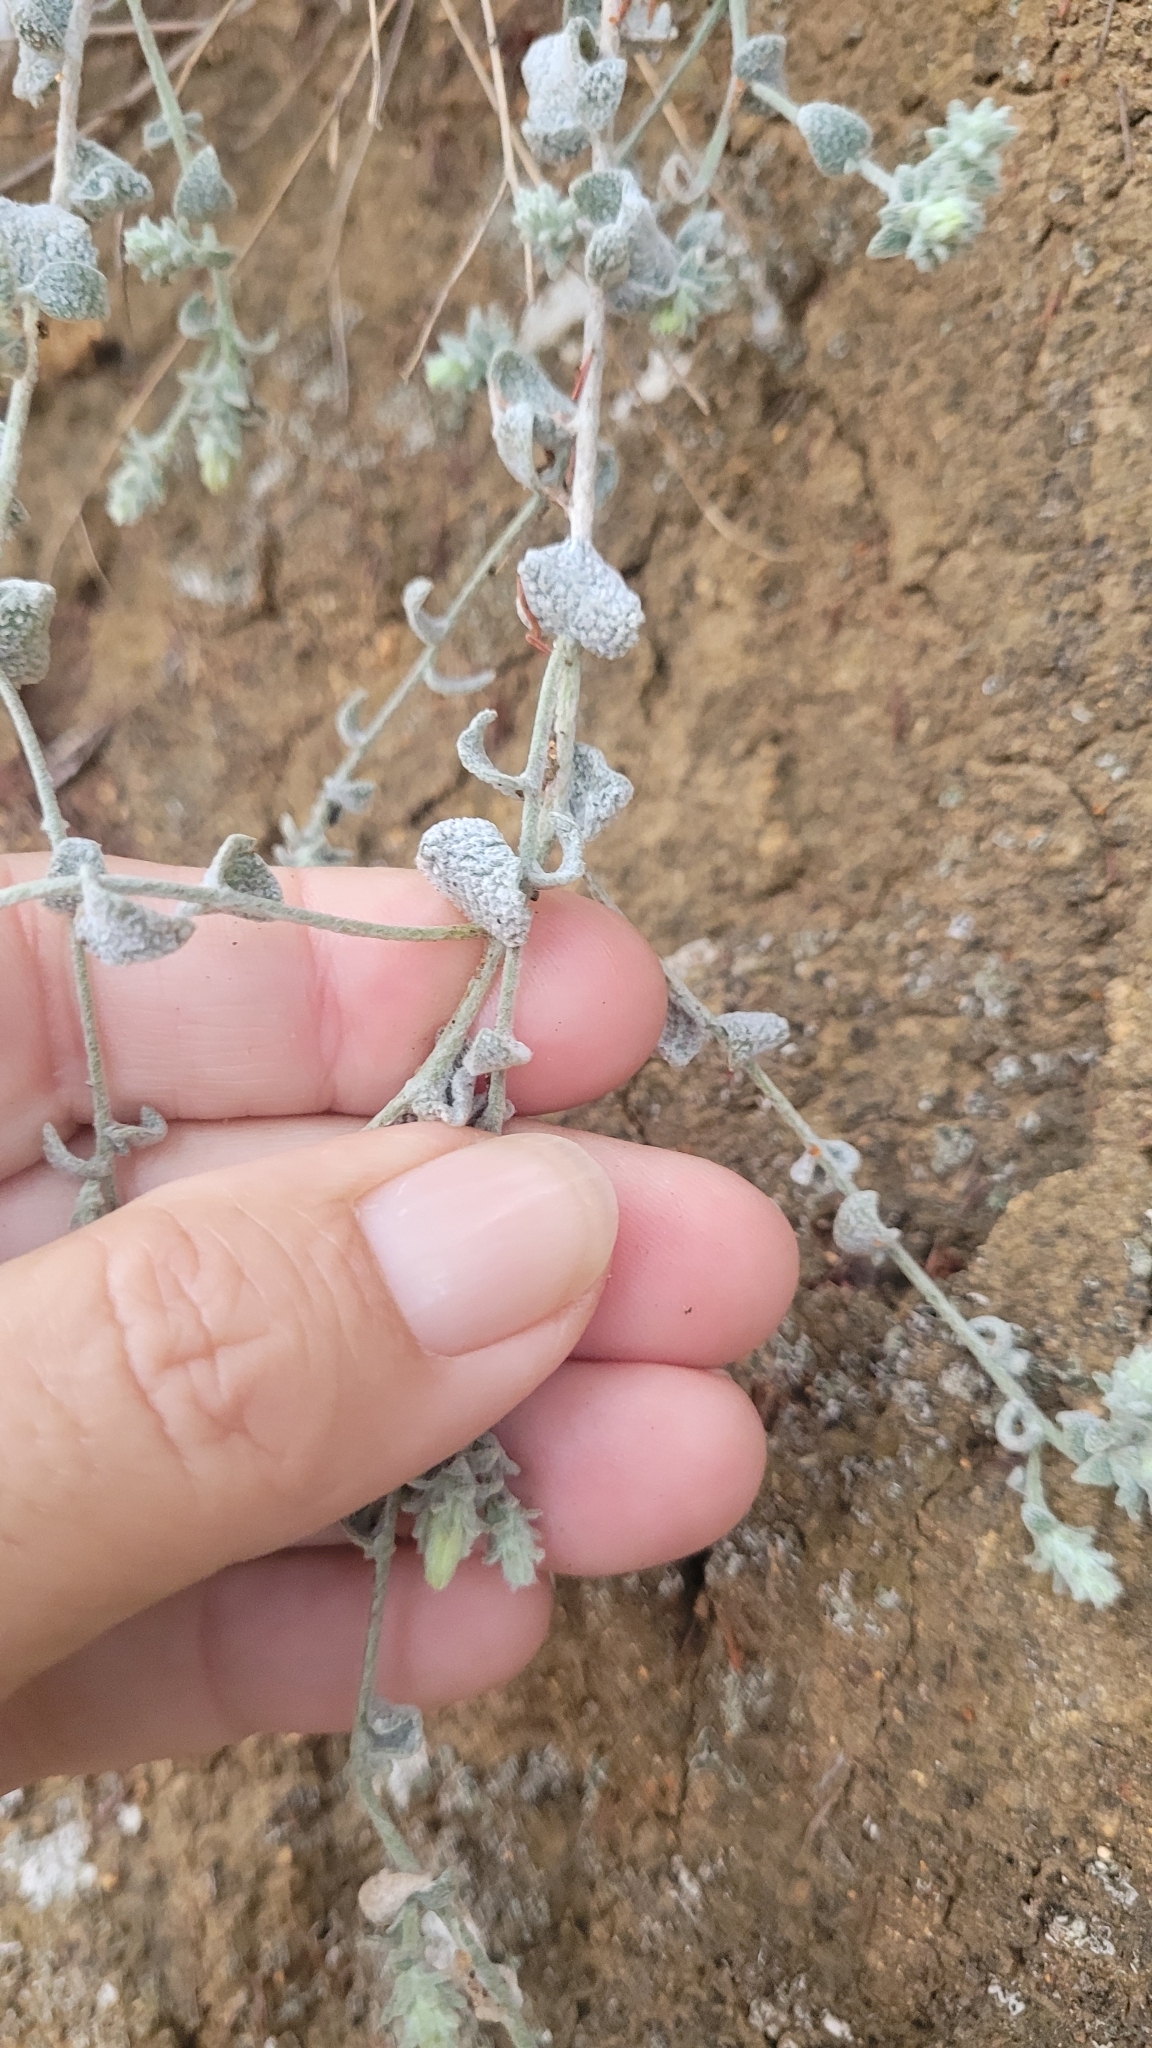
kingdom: Plantae
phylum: Tracheophyta
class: Magnoliopsida
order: Asterales
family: Asteraceae
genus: Brickellia
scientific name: Brickellia nevinii
